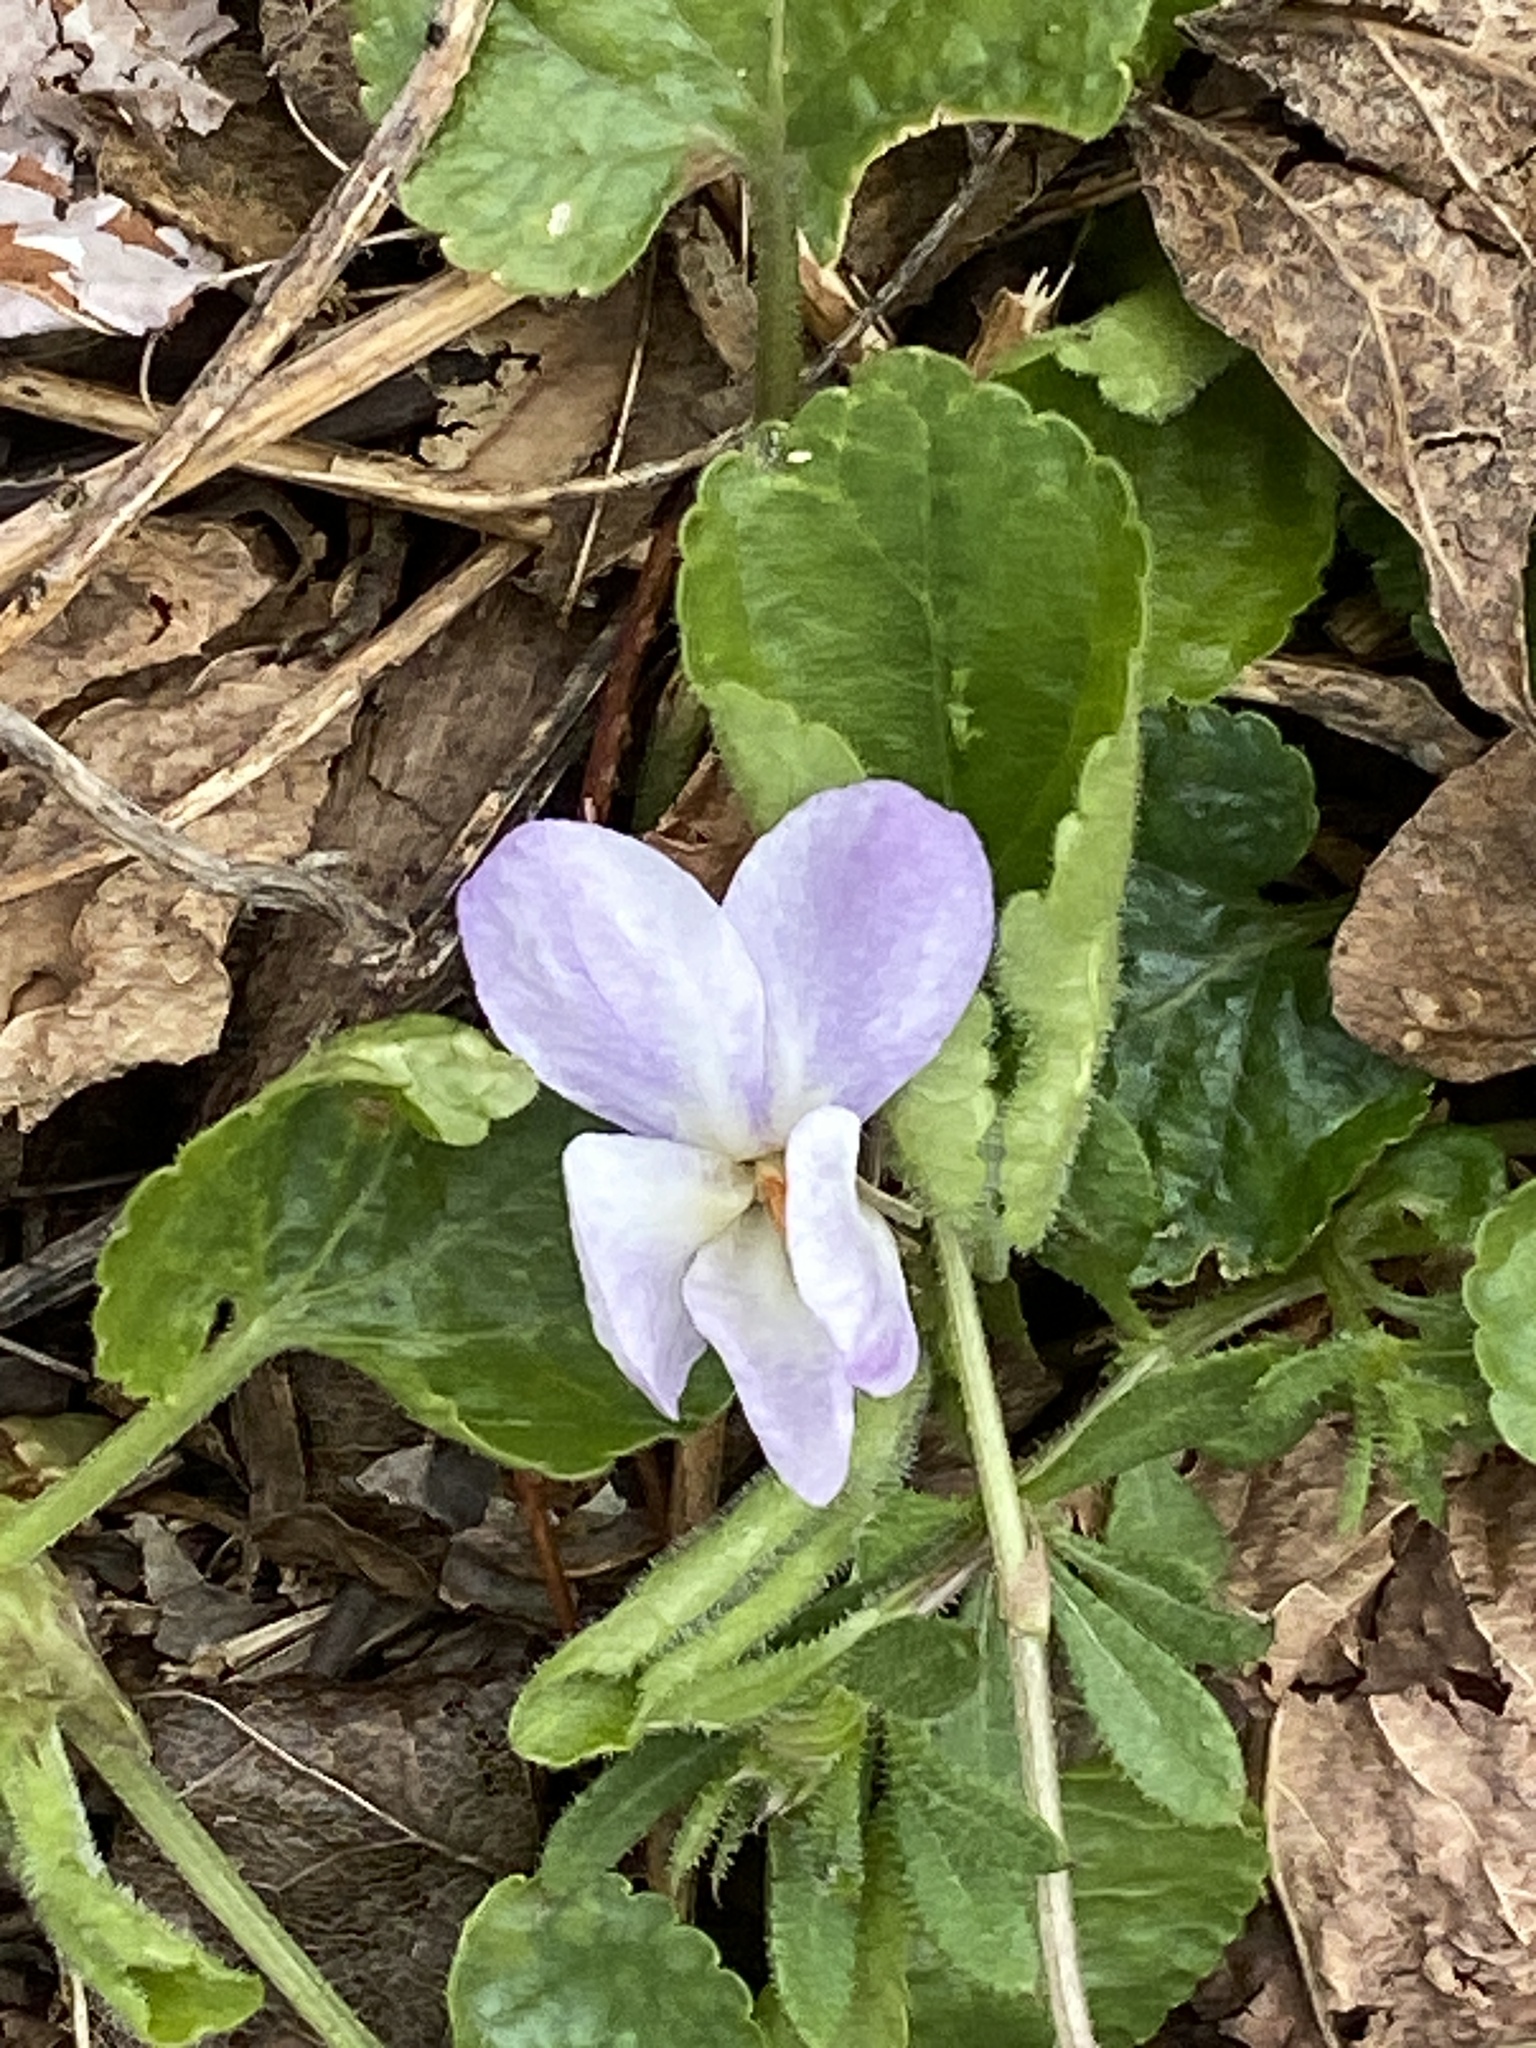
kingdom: Plantae
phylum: Tracheophyta
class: Magnoliopsida
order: Malpighiales
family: Violaceae
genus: Viola
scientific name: Viola odorata
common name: Sweet violet
